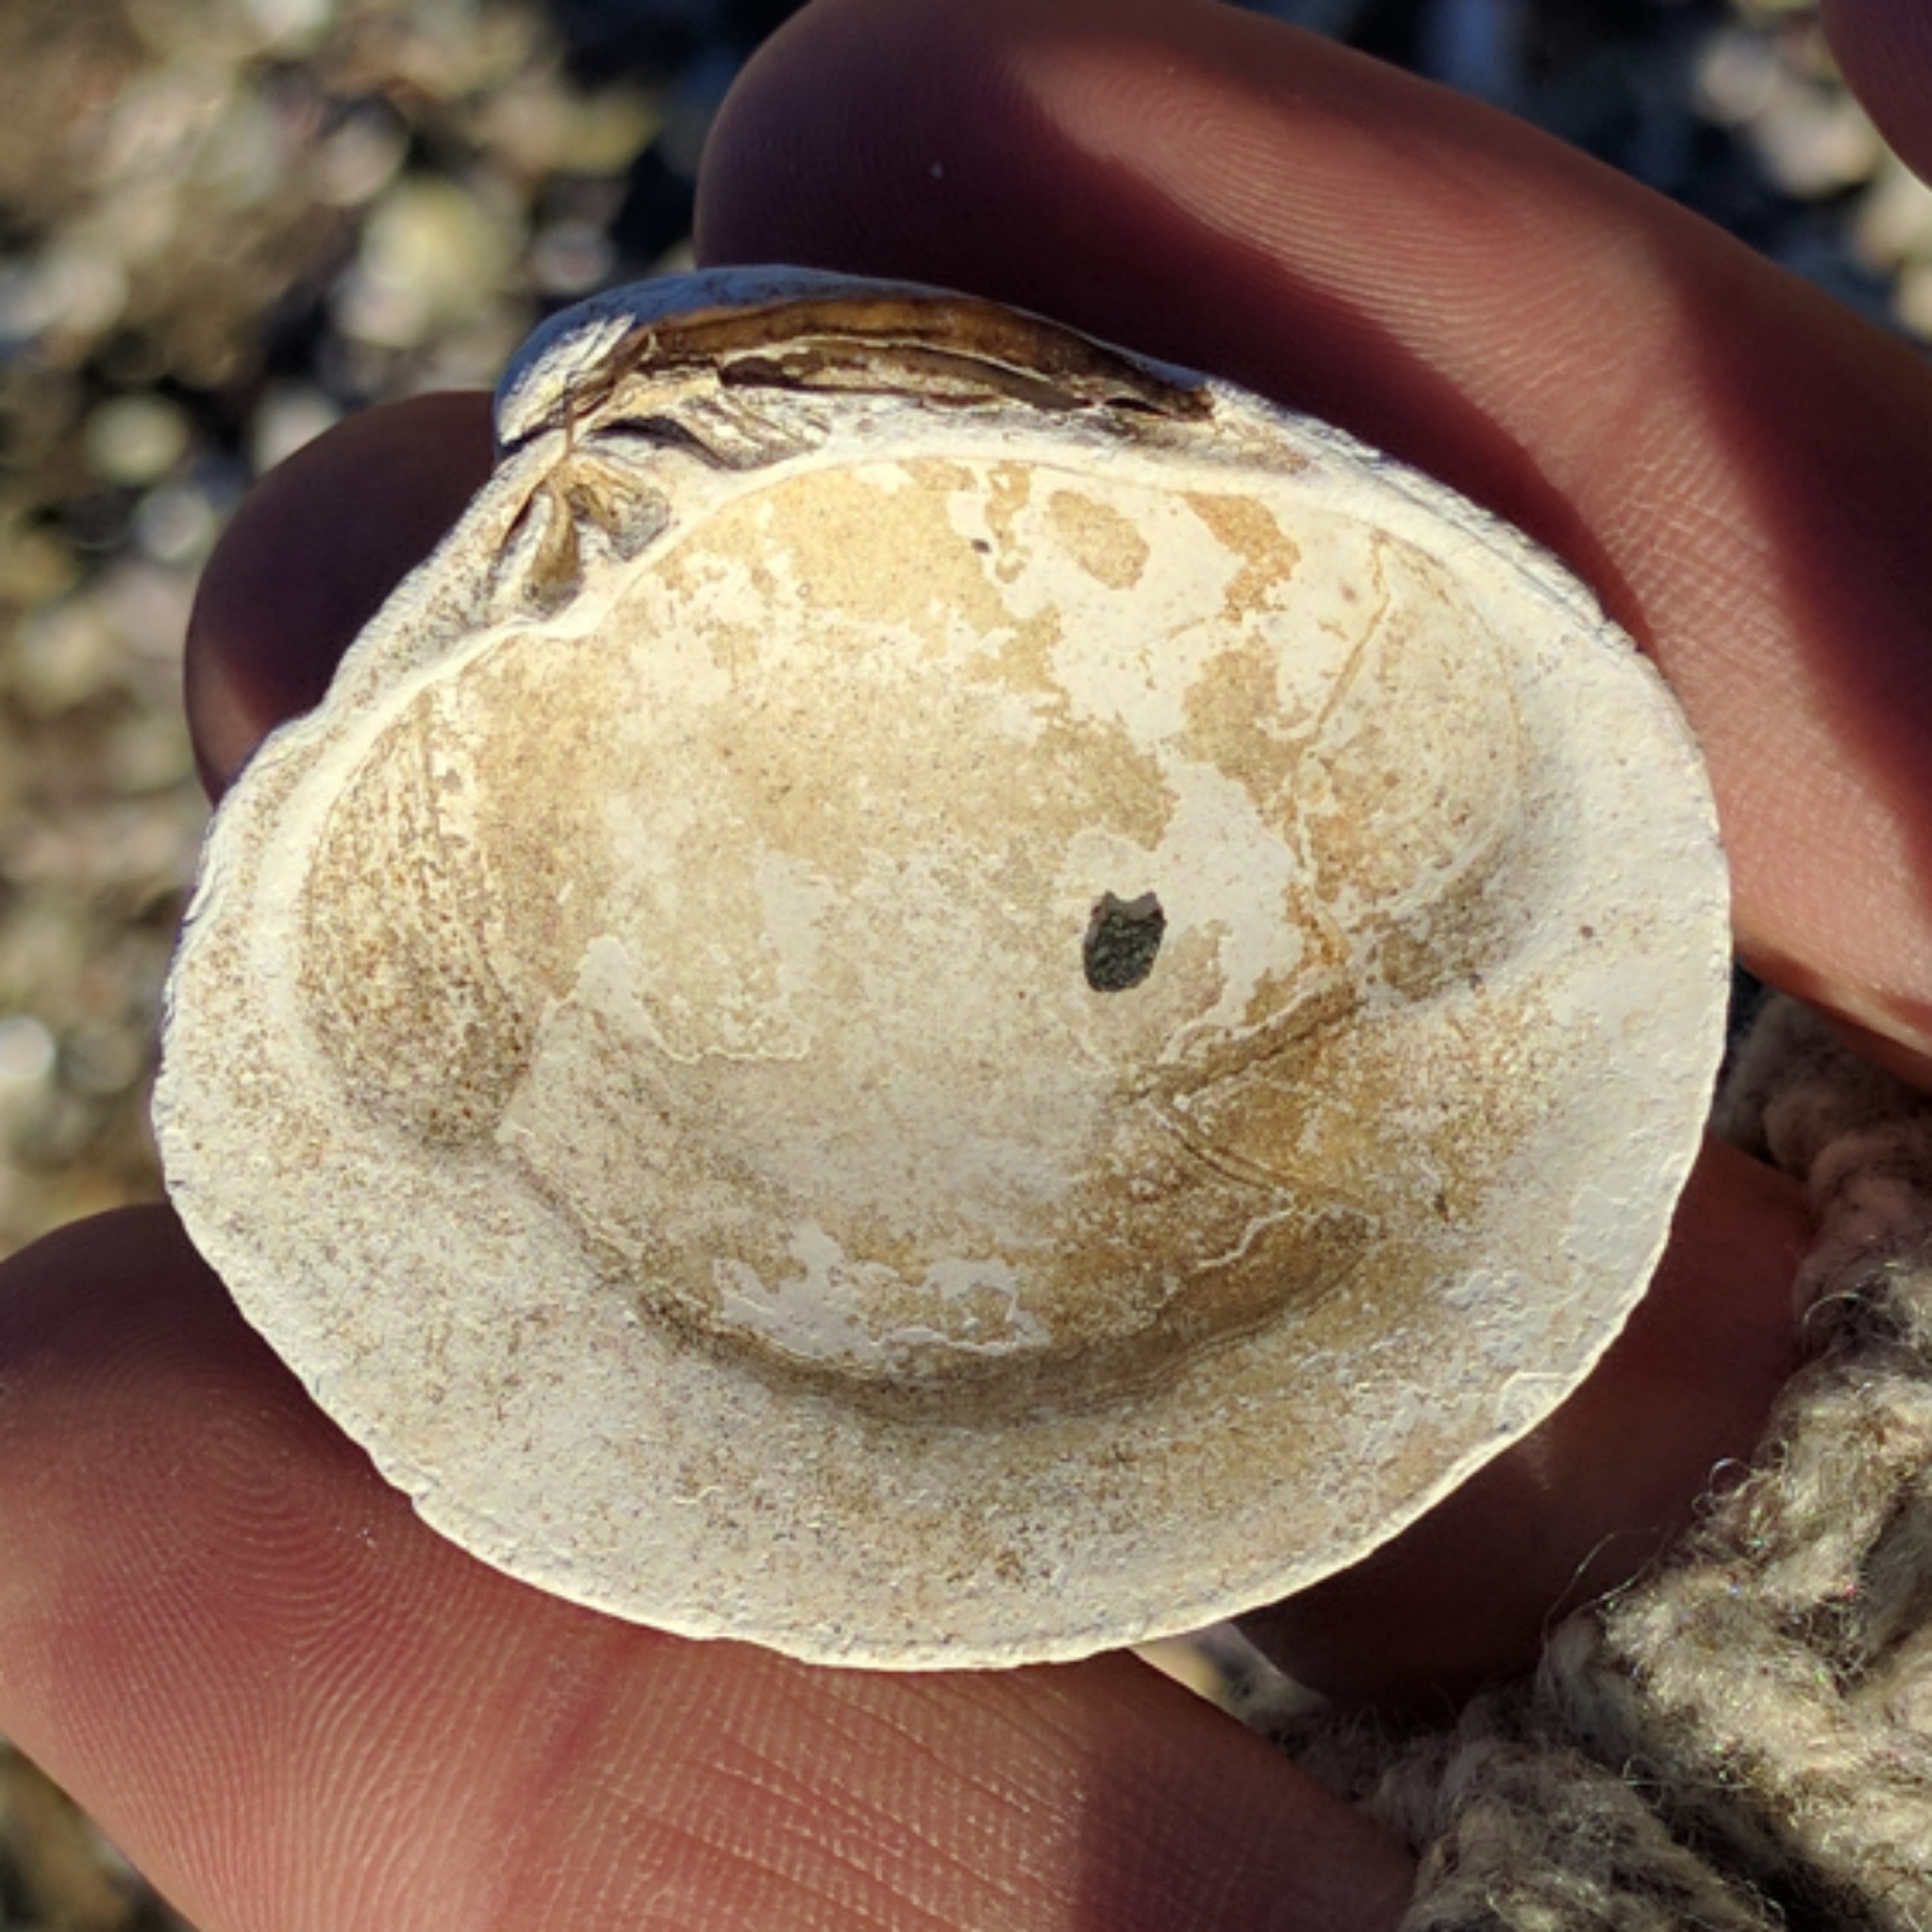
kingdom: Animalia
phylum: Mollusca
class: Bivalvia
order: Venerida
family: Veneridae
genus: Mercenaria
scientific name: Mercenaria mercenaria
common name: American hard-shelled clam
